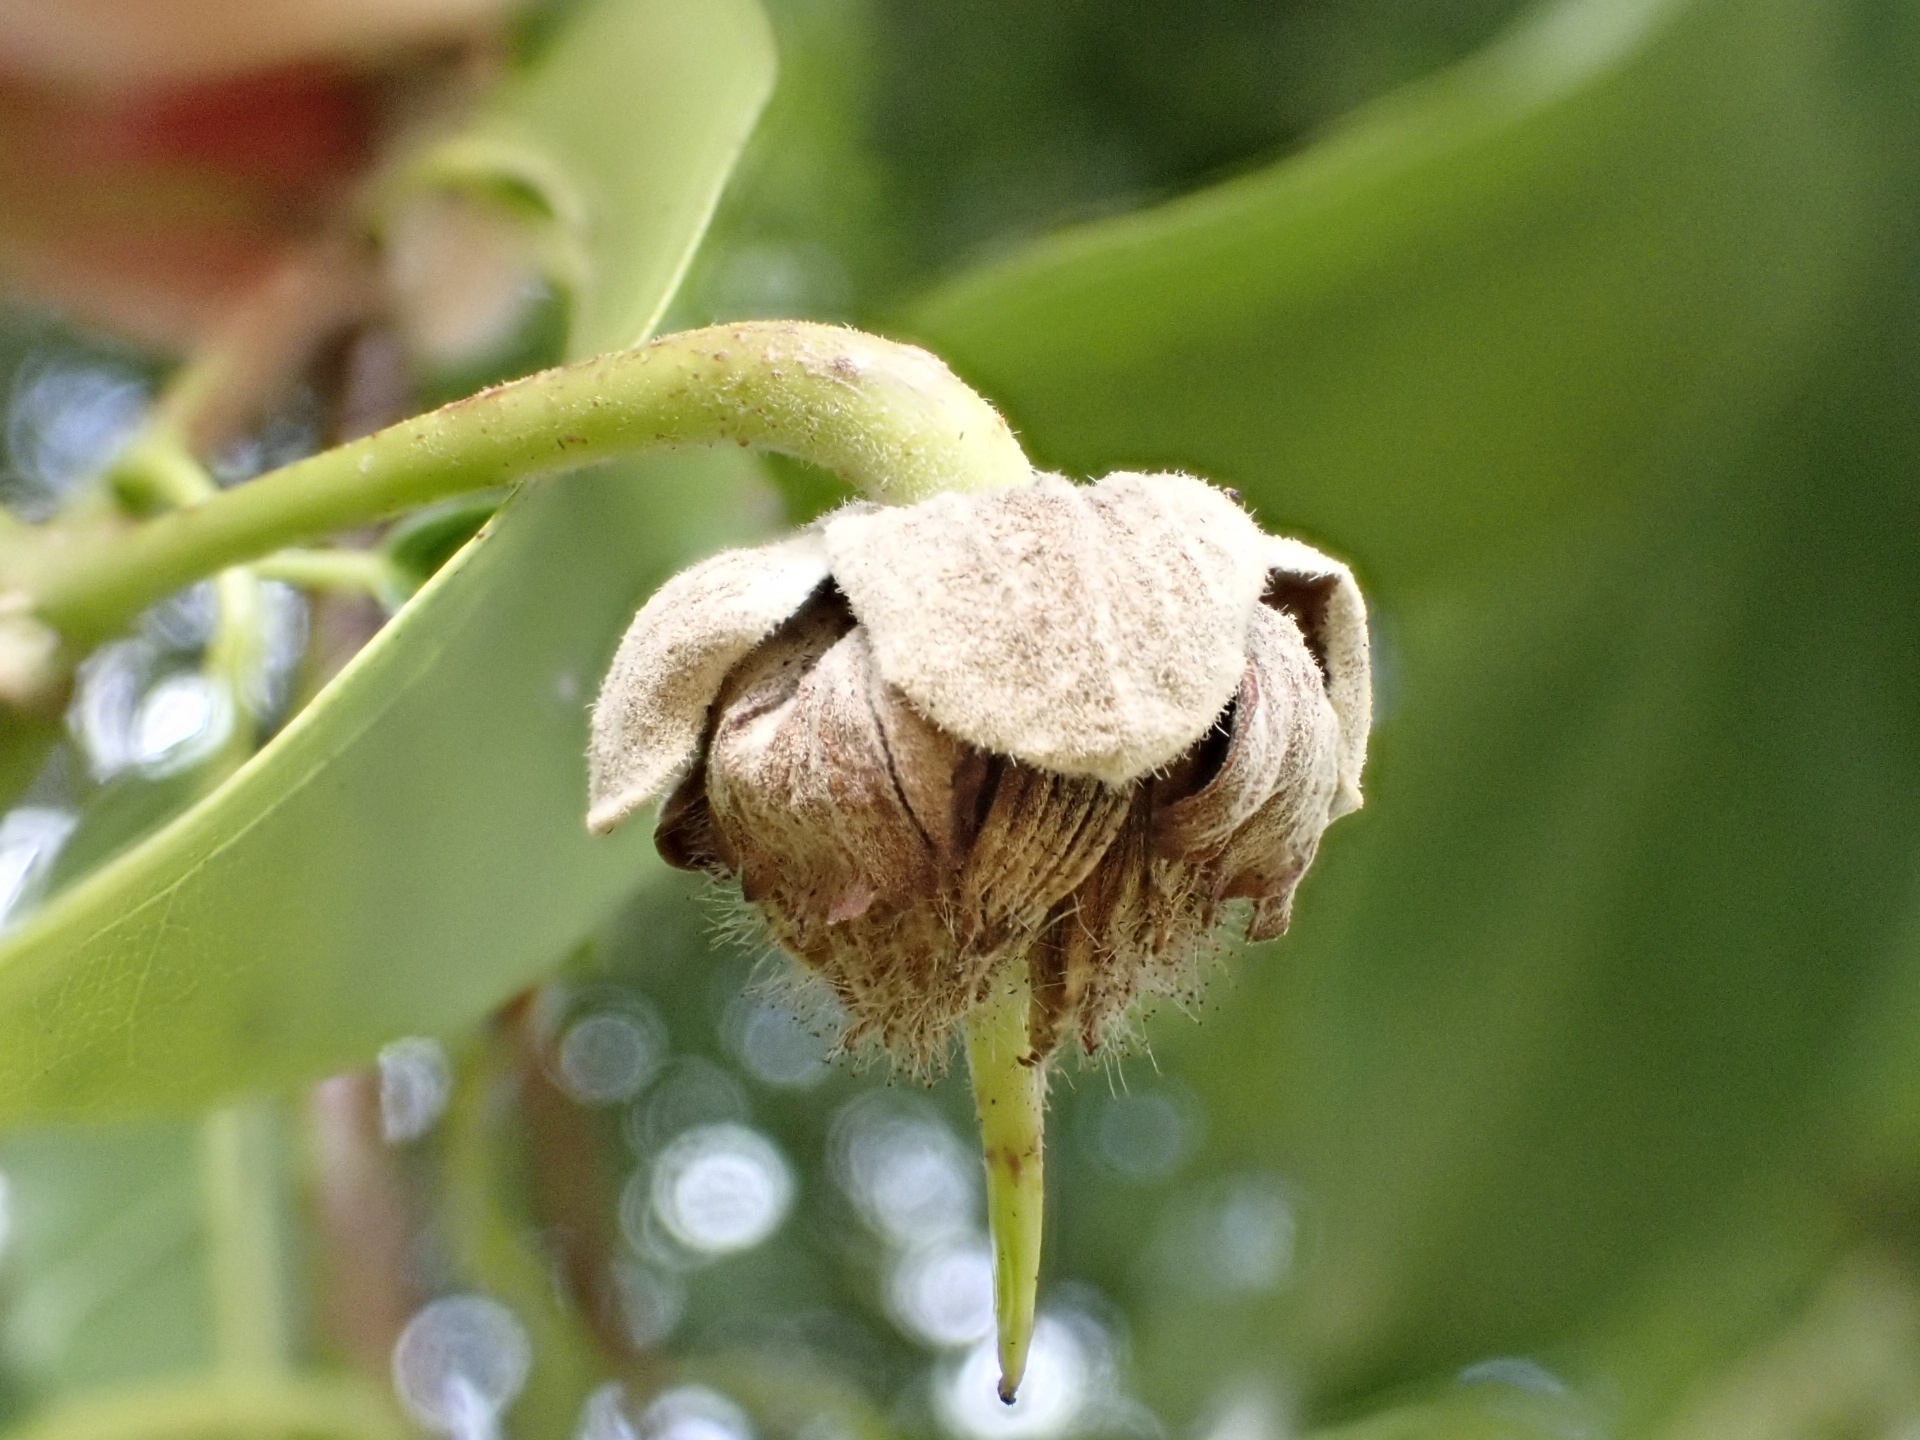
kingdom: Plantae
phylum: Tracheophyta
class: Magnoliopsida
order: Oxalidales
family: Elaeocarpaceae
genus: Sloanea
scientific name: Sloanea sinensis
